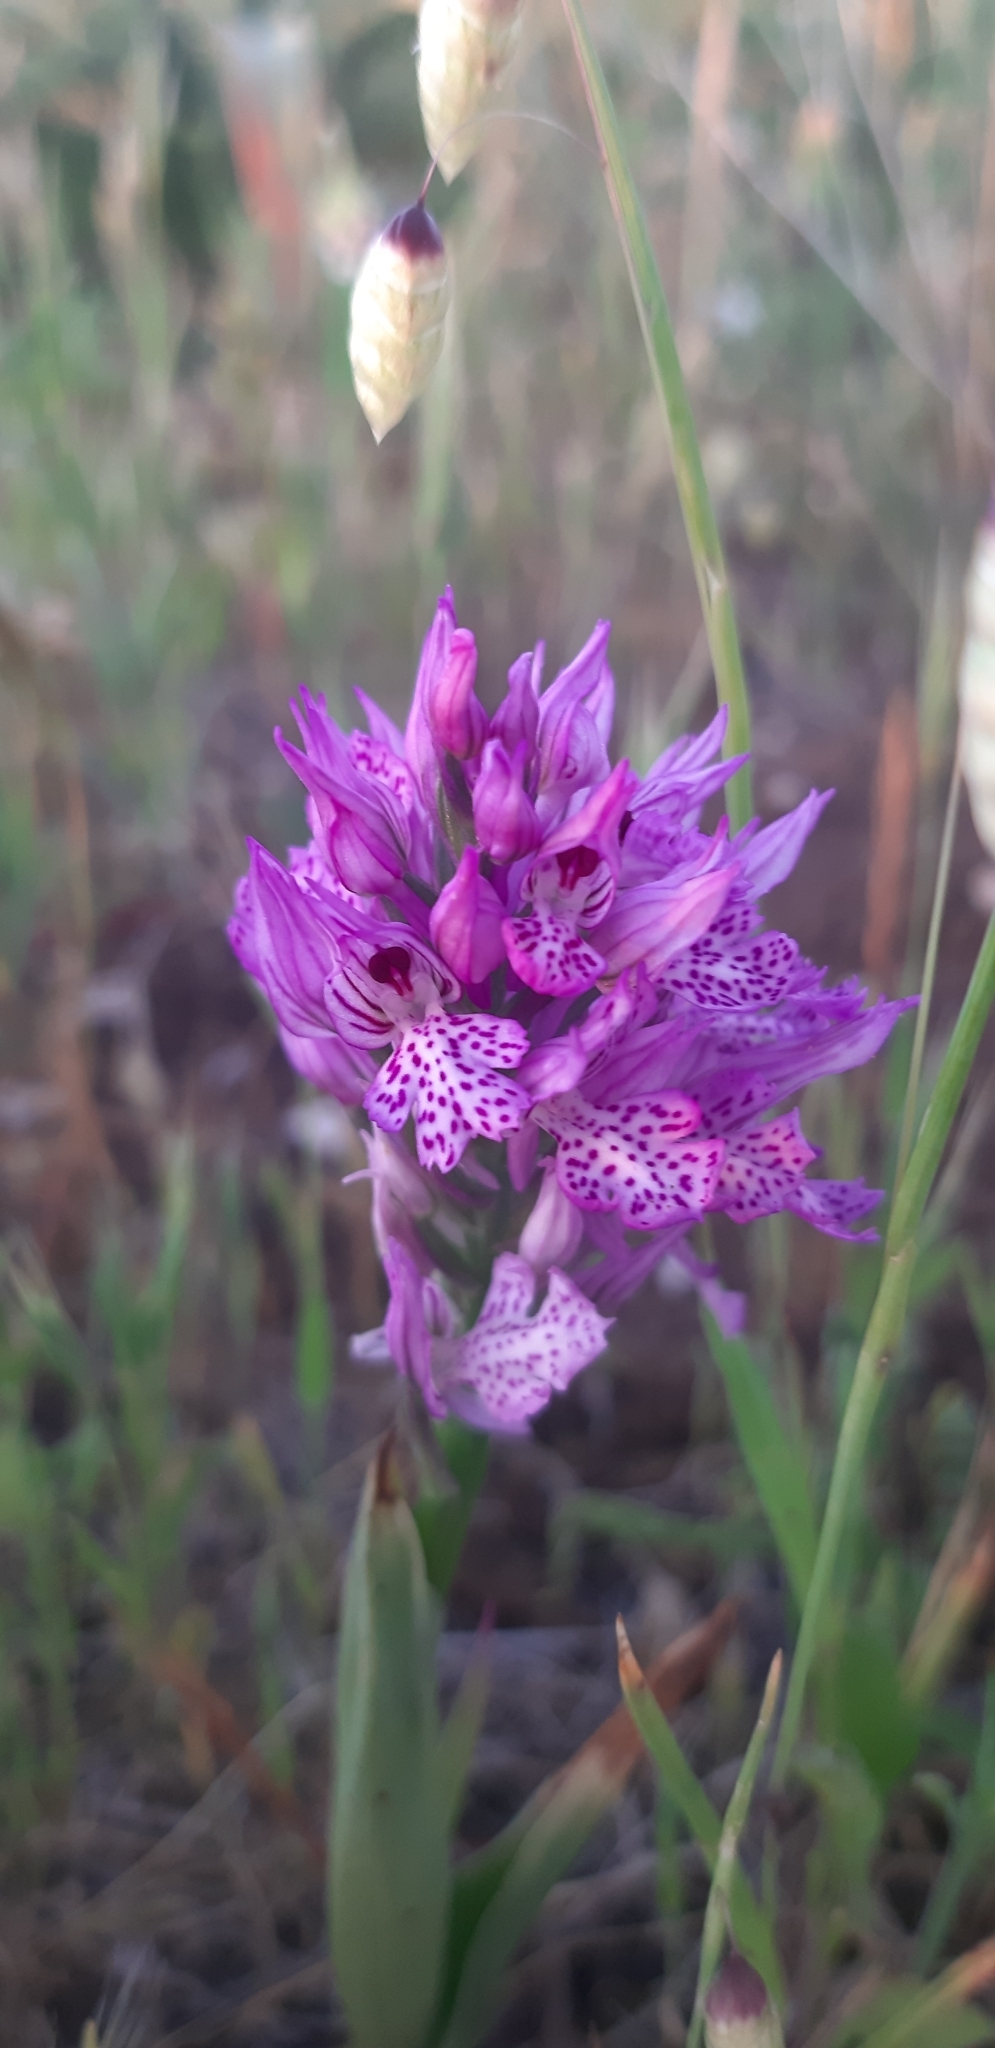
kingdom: Plantae
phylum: Tracheophyta
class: Liliopsida
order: Asparagales
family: Orchidaceae
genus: Neotinea
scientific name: Neotinea tridentata
